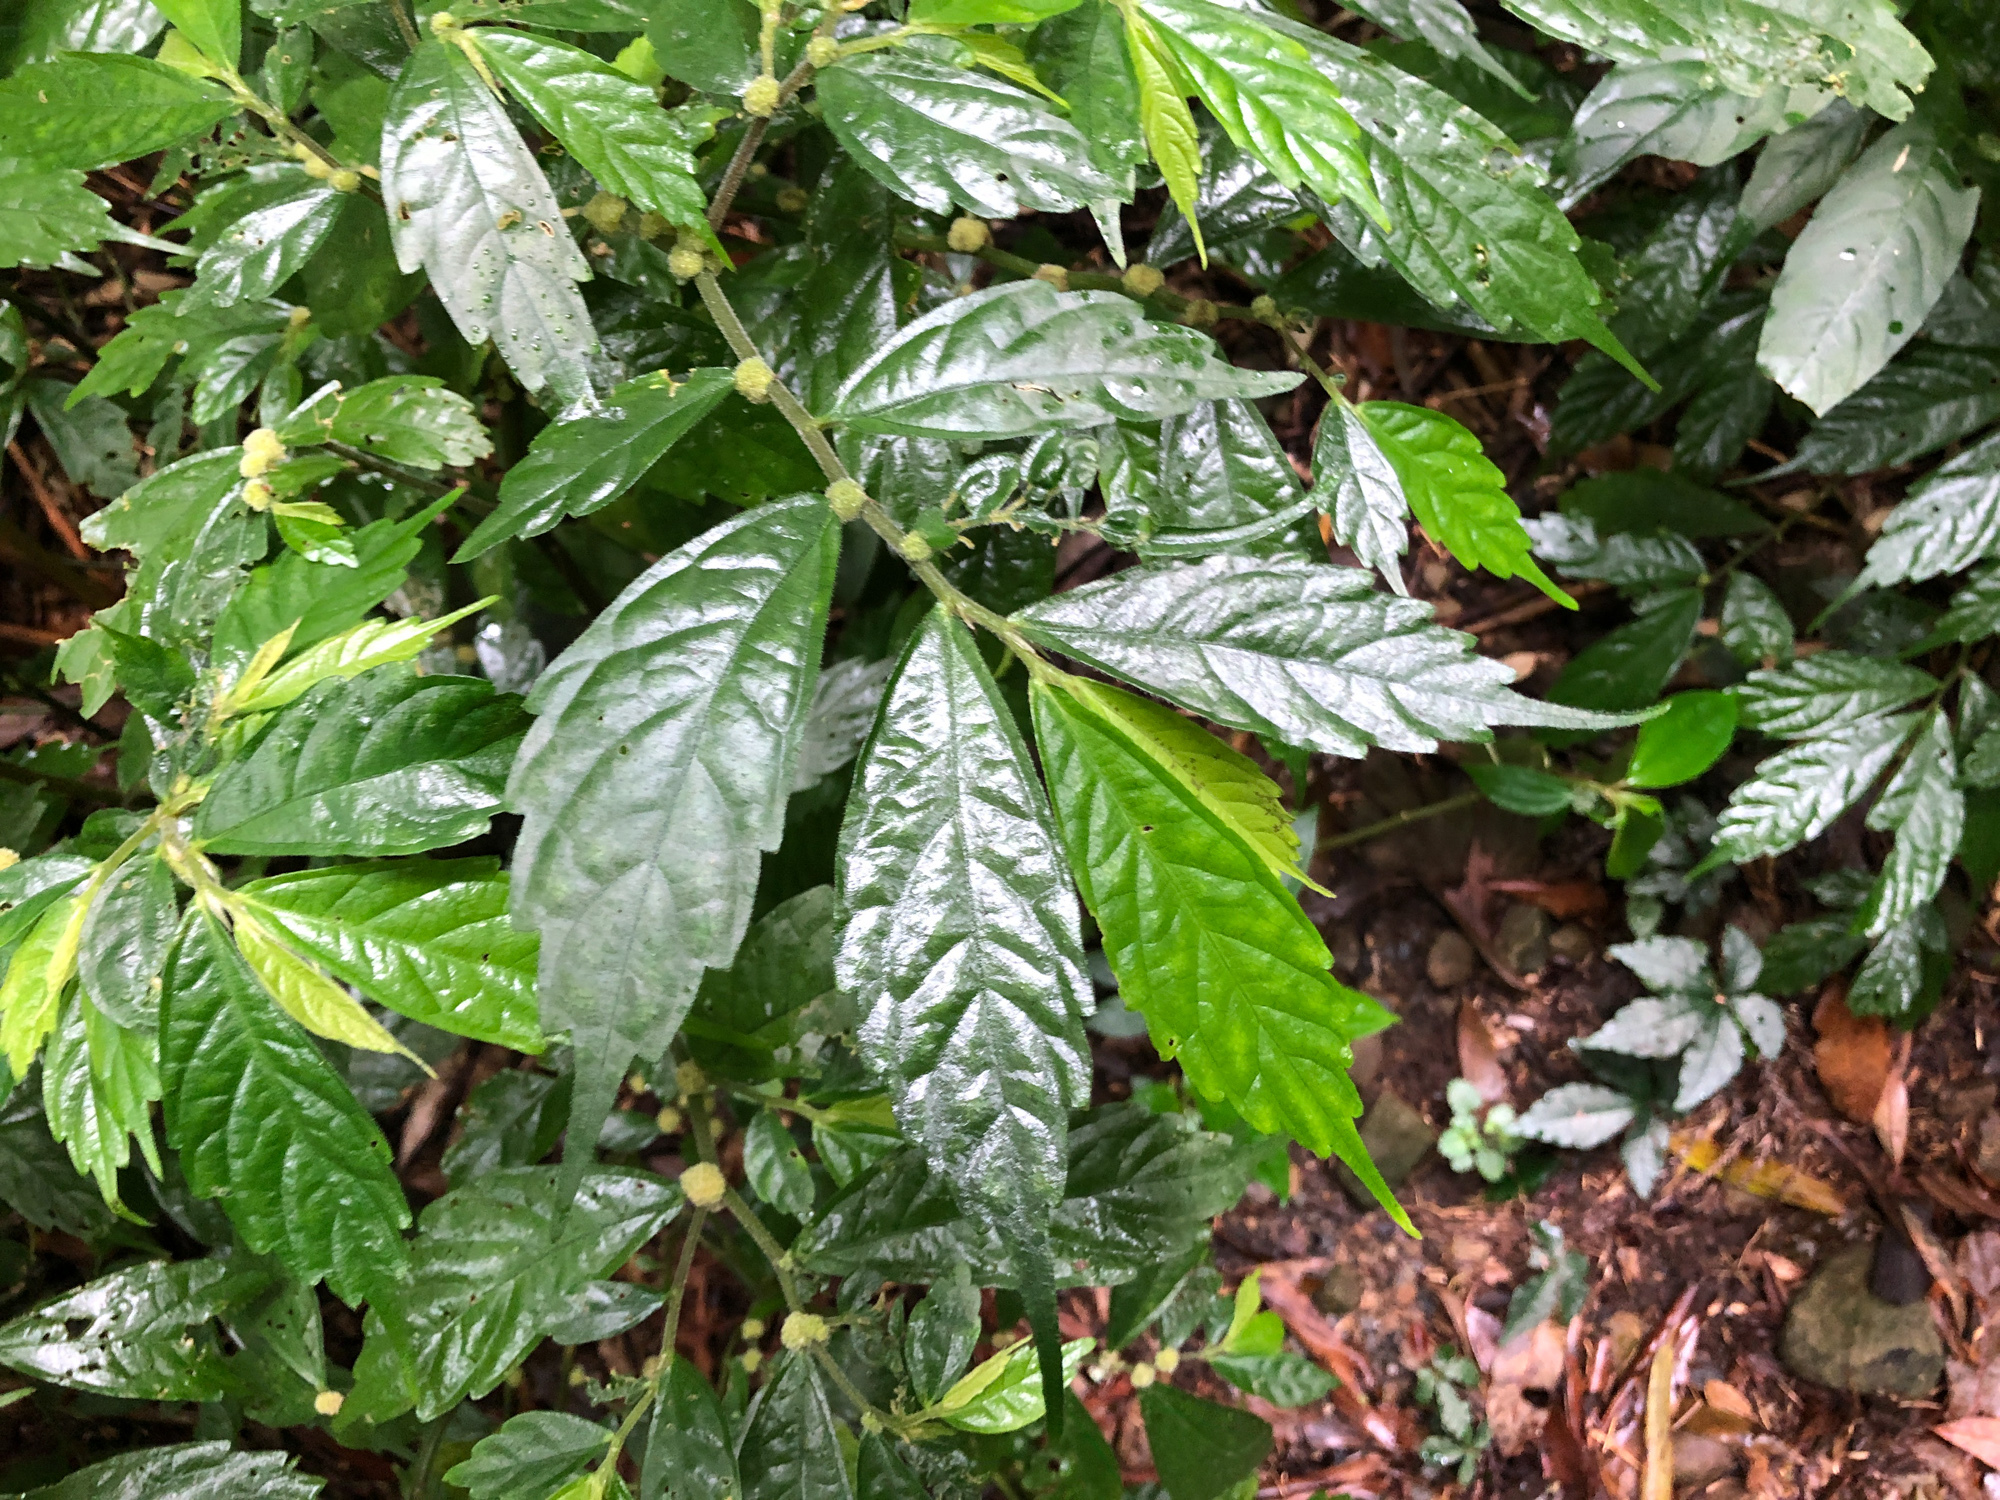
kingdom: Plantae
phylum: Tracheophyta
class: Magnoliopsida
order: Rosales
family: Urticaceae
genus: Elatostema
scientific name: Elatostema lineolatum
